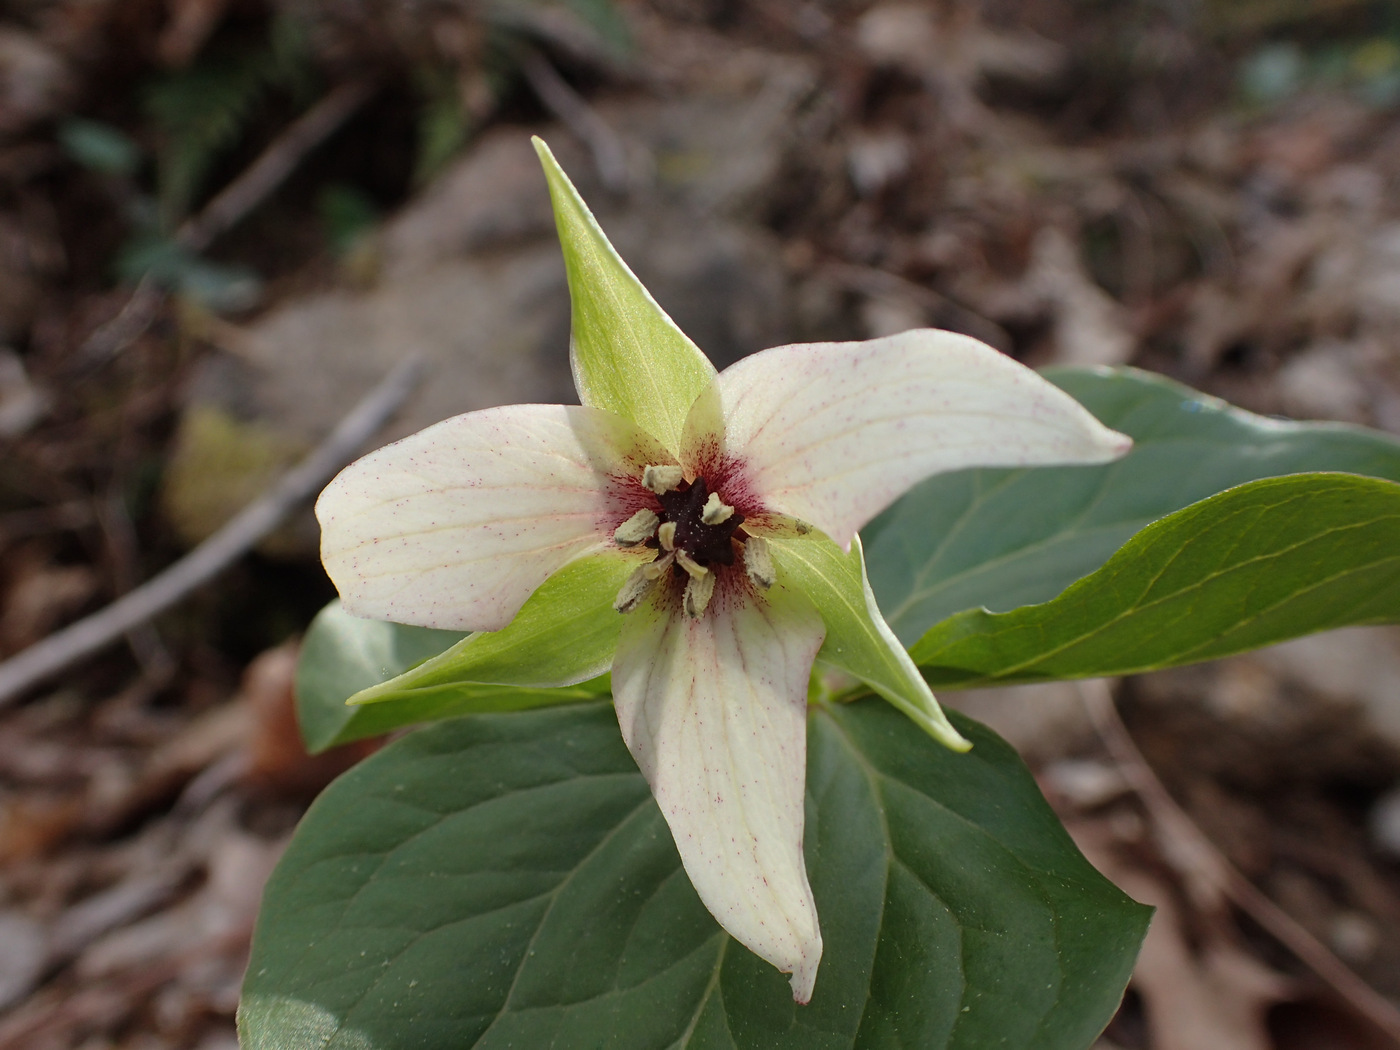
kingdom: Plantae
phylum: Tracheophyta
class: Liliopsida
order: Liliales
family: Melanthiaceae
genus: Trillium
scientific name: Trillium erectum
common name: Purple trillium
